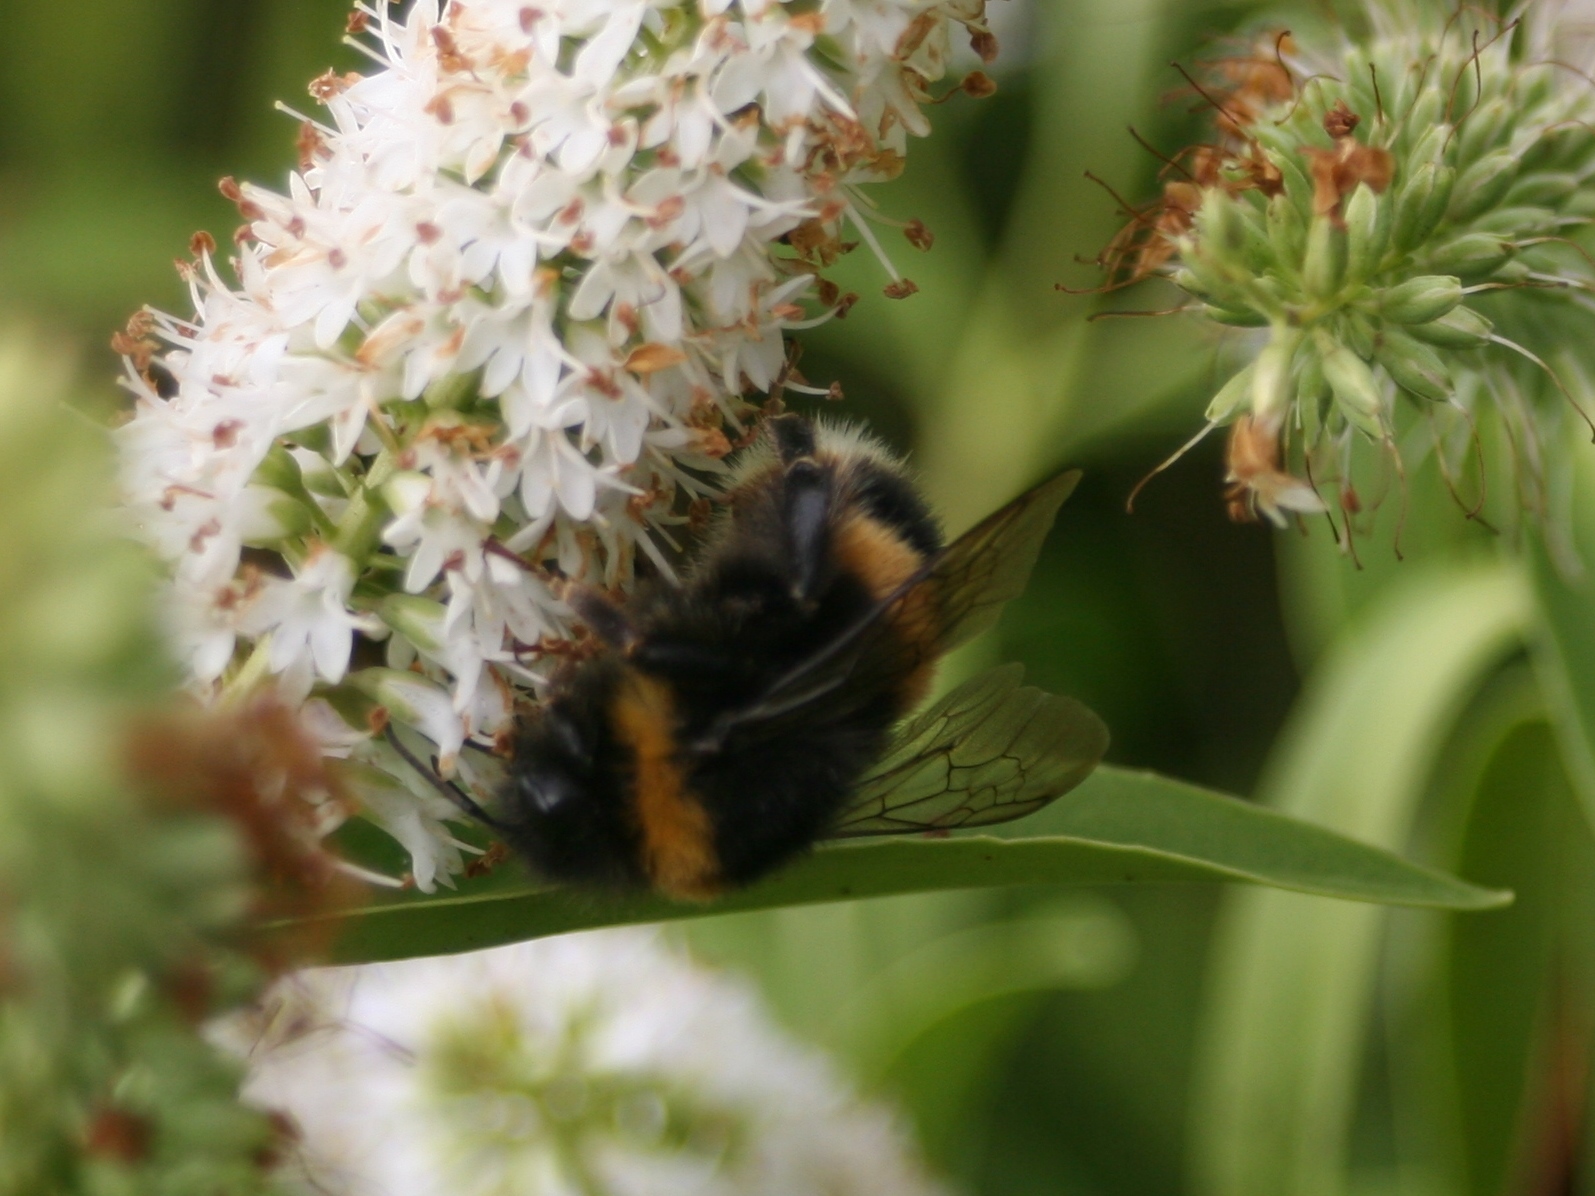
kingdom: Animalia
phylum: Arthropoda
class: Insecta
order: Hymenoptera
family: Apidae
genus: Bombus
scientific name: Bombus terrestris
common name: Buff-tailed bumblebee
